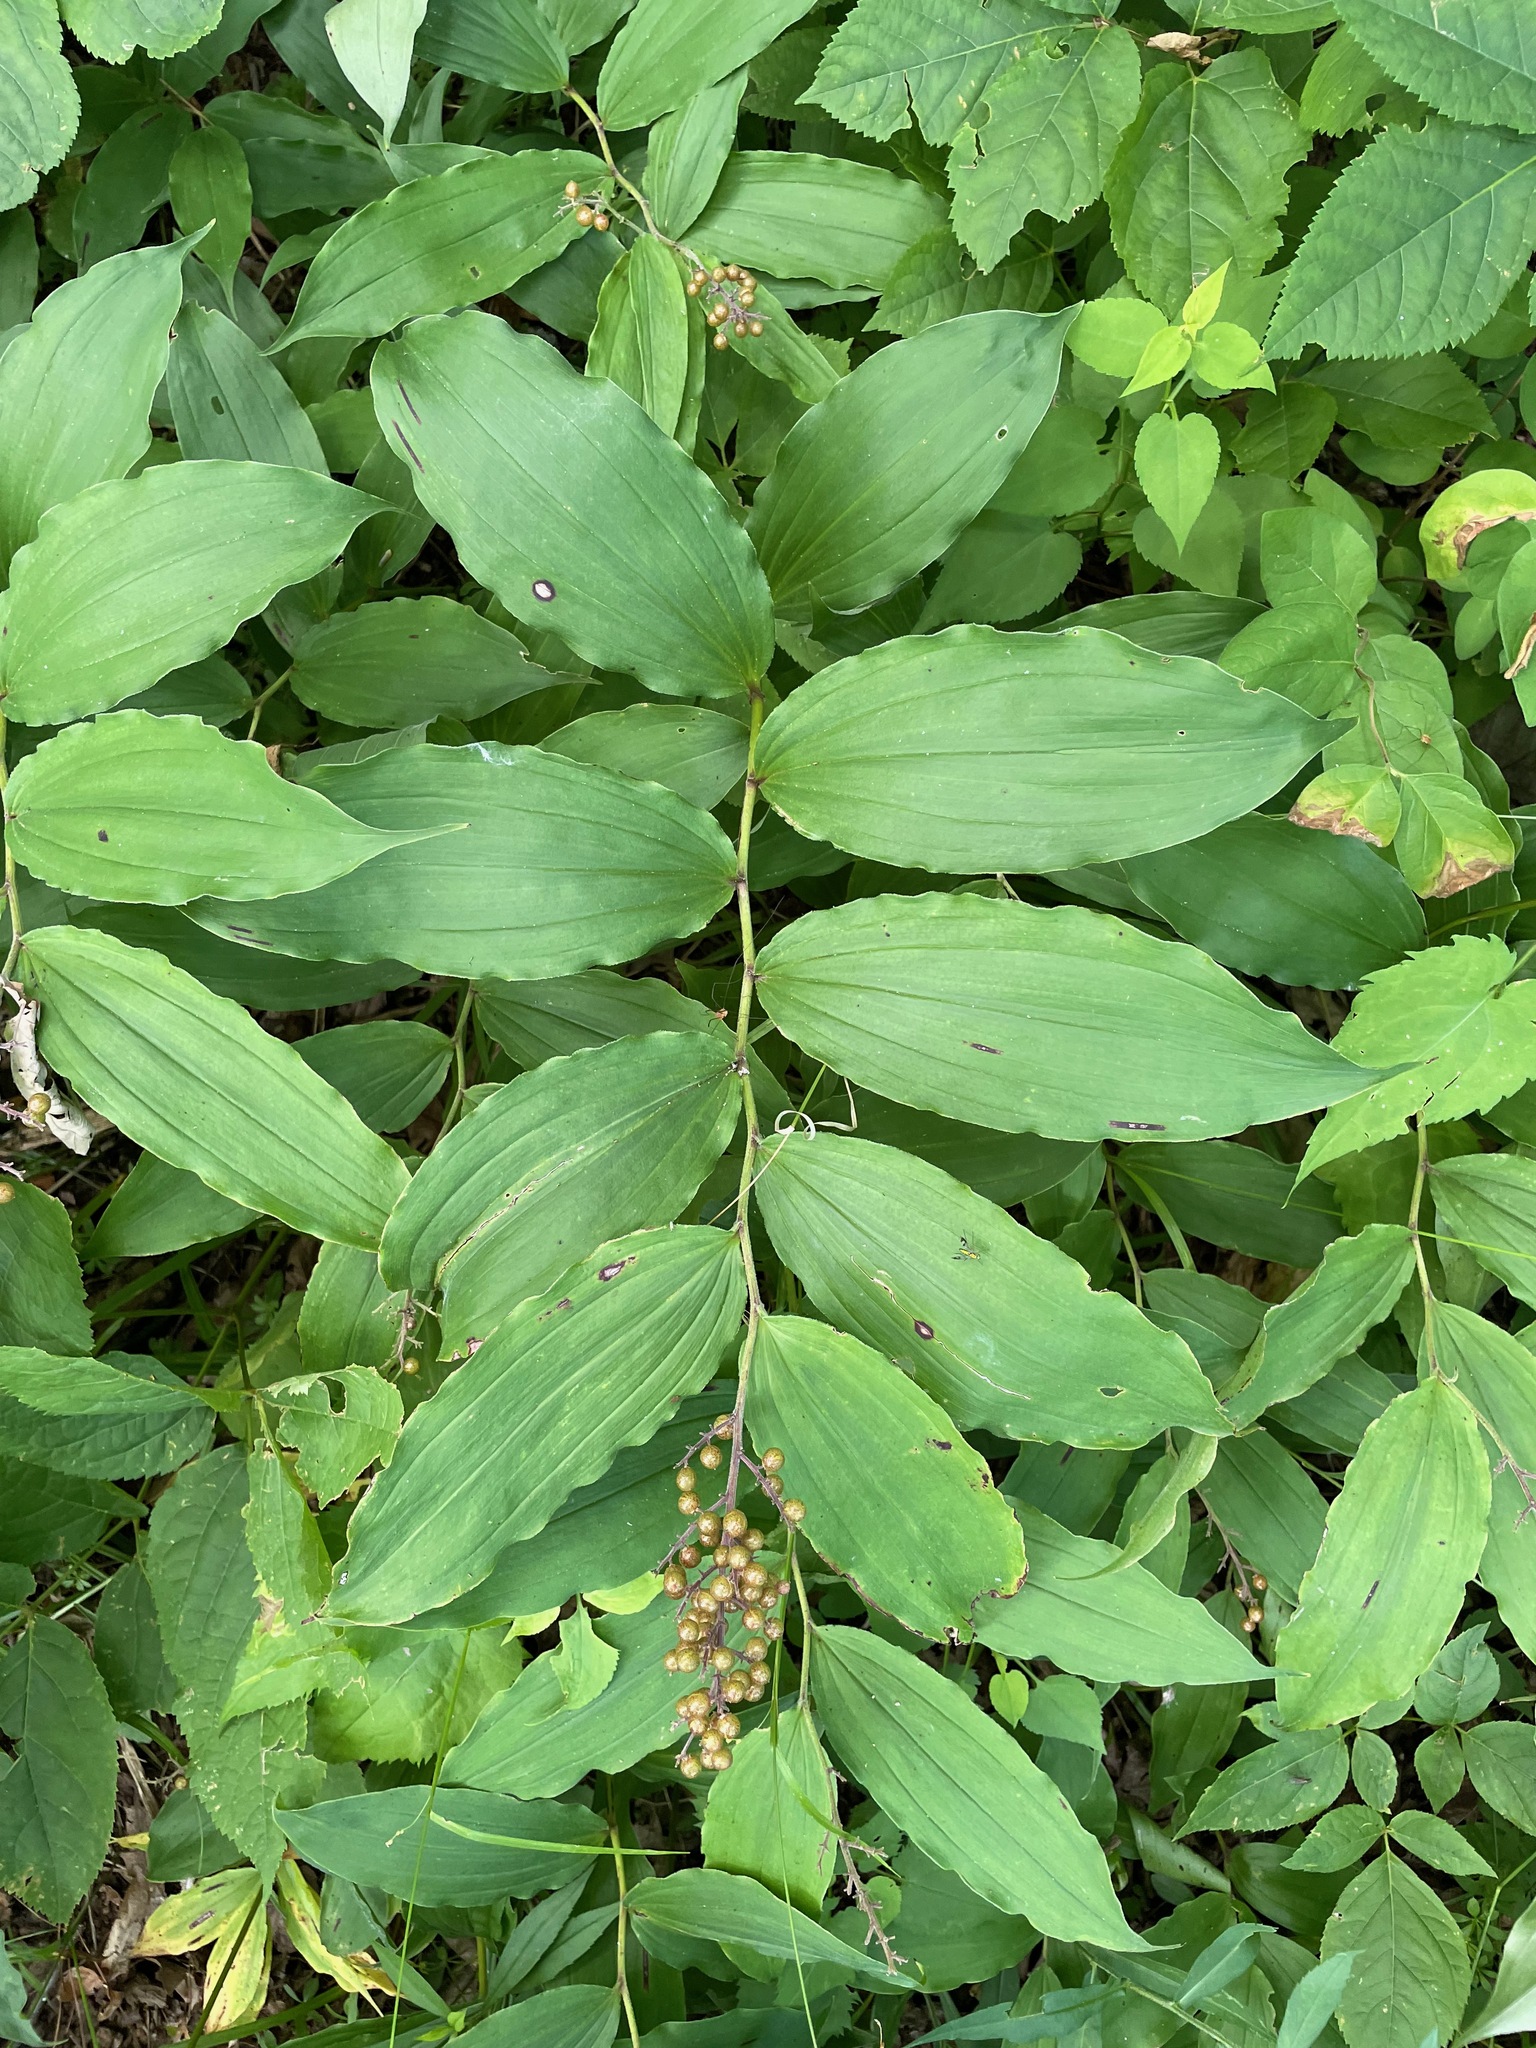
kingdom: Plantae
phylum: Tracheophyta
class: Liliopsida
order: Asparagales
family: Asparagaceae
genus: Maianthemum
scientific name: Maianthemum racemosum
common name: False spikenard
